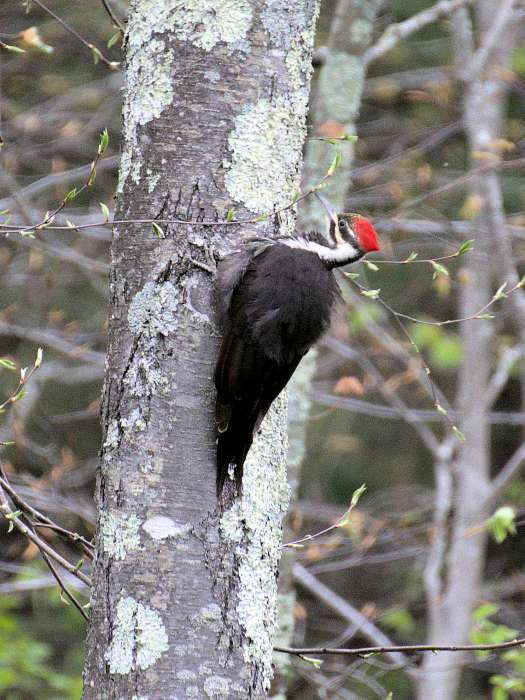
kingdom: Animalia
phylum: Chordata
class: Aves
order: Piciformes
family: Picidae
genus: Dryocopus
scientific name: Dryocopus pileatus
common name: Pileated woodpecker
